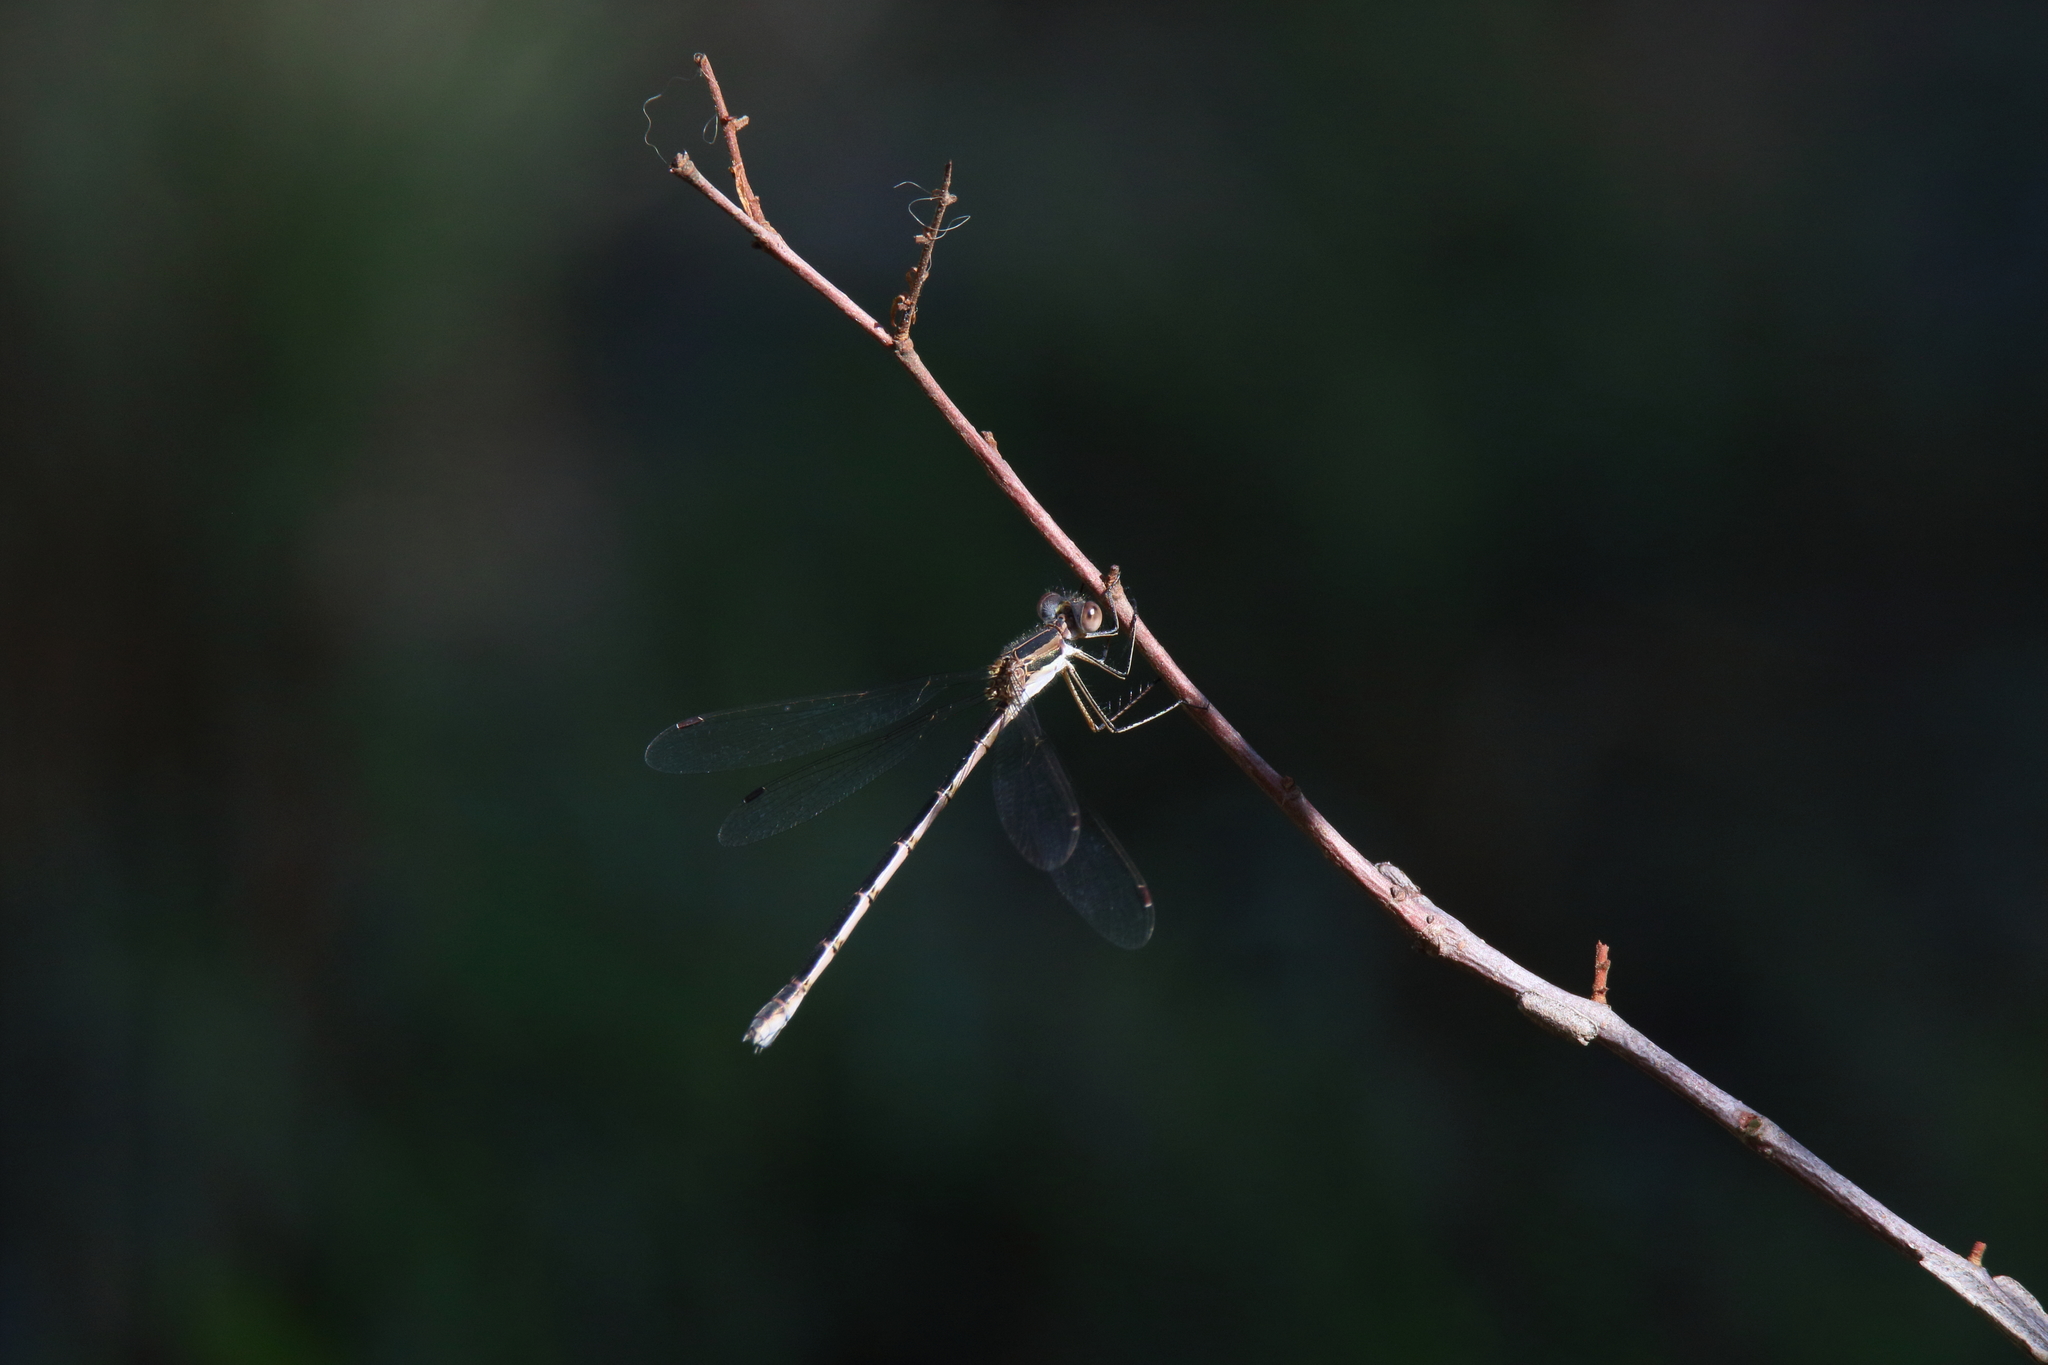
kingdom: Animalia
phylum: Arthropoda
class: Insecta
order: Odonata
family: Lestidae
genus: Lestes
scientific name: Lestes australis
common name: Southern spreadwing
